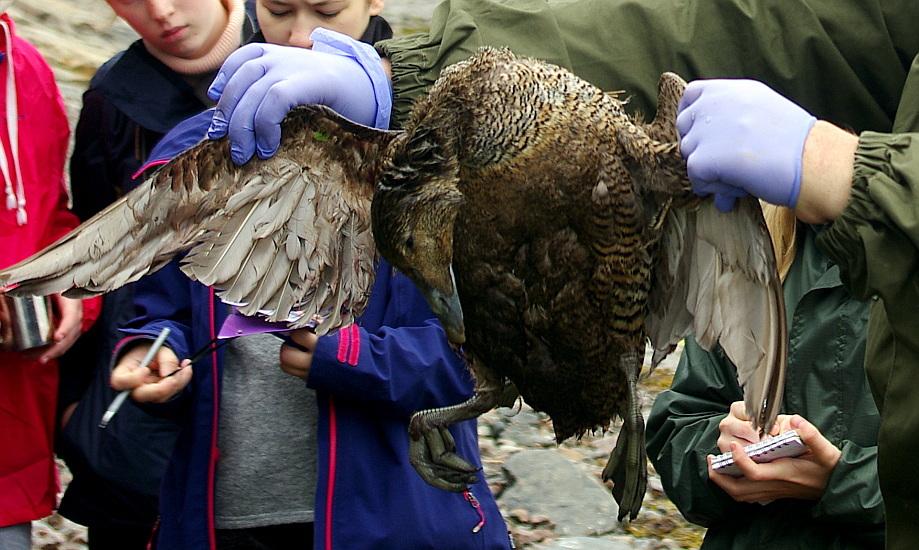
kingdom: Animalia
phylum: Chordata
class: Aves
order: Anseriformes
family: Anatidae
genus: Somateria
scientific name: Somateria mollissima
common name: Common eider
